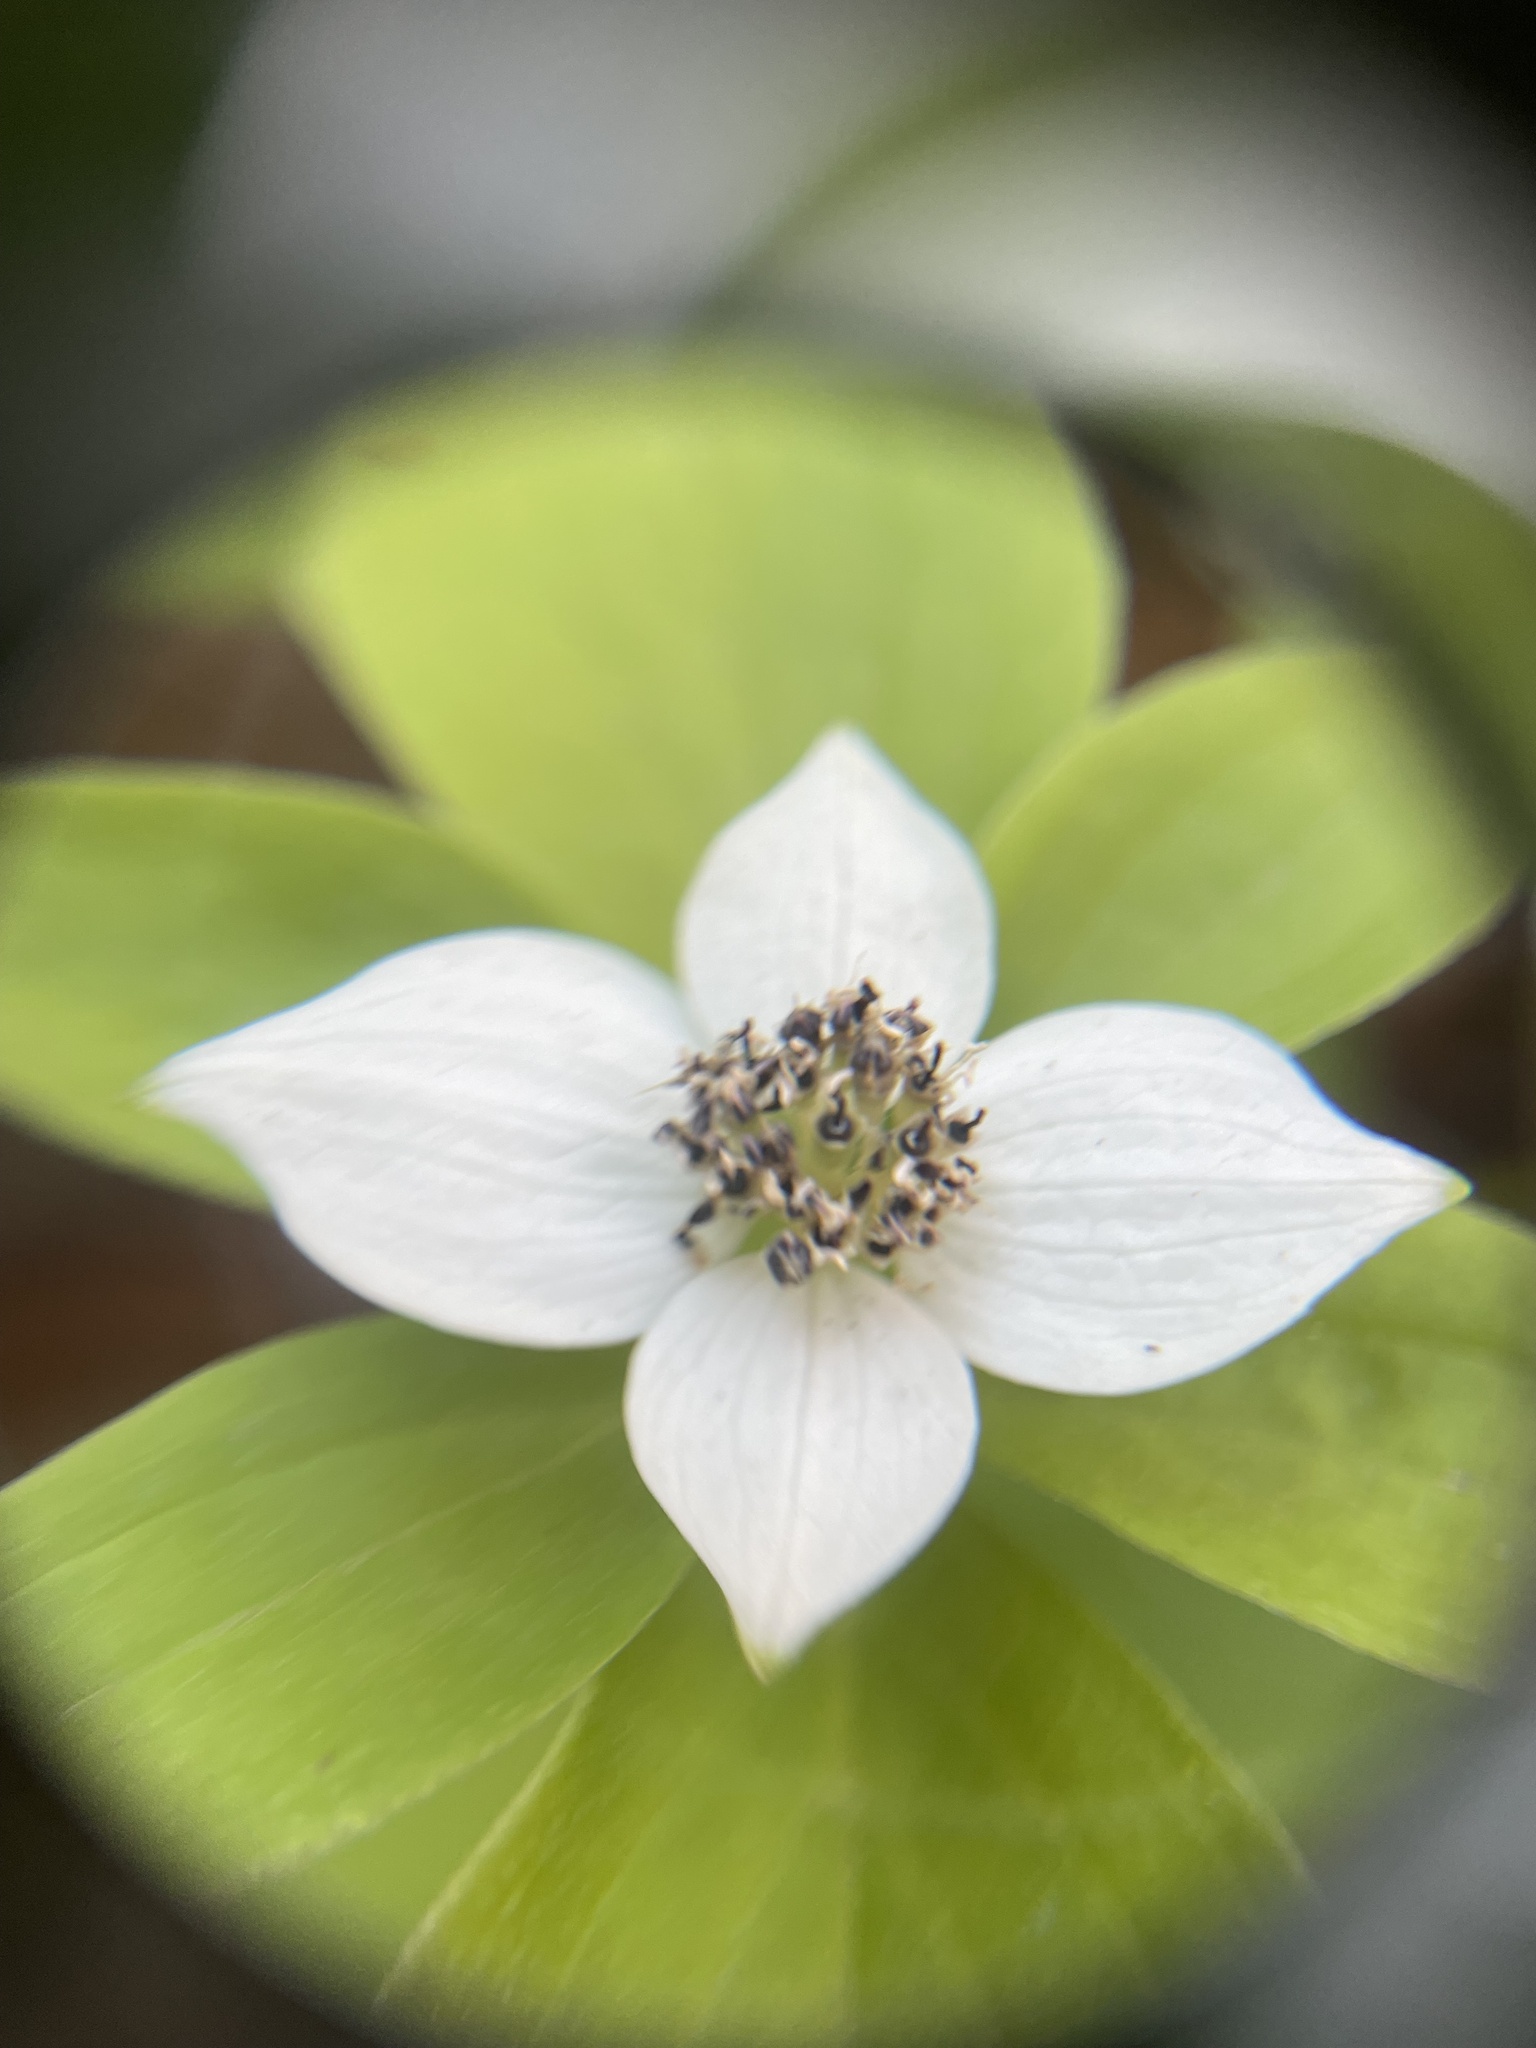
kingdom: Plantae
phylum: Tracheophyta
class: Magnoliopsida
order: Cornales
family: Cornaceae
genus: Cornus
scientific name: Cornus unalaschkensis
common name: Alaska bunchberry
